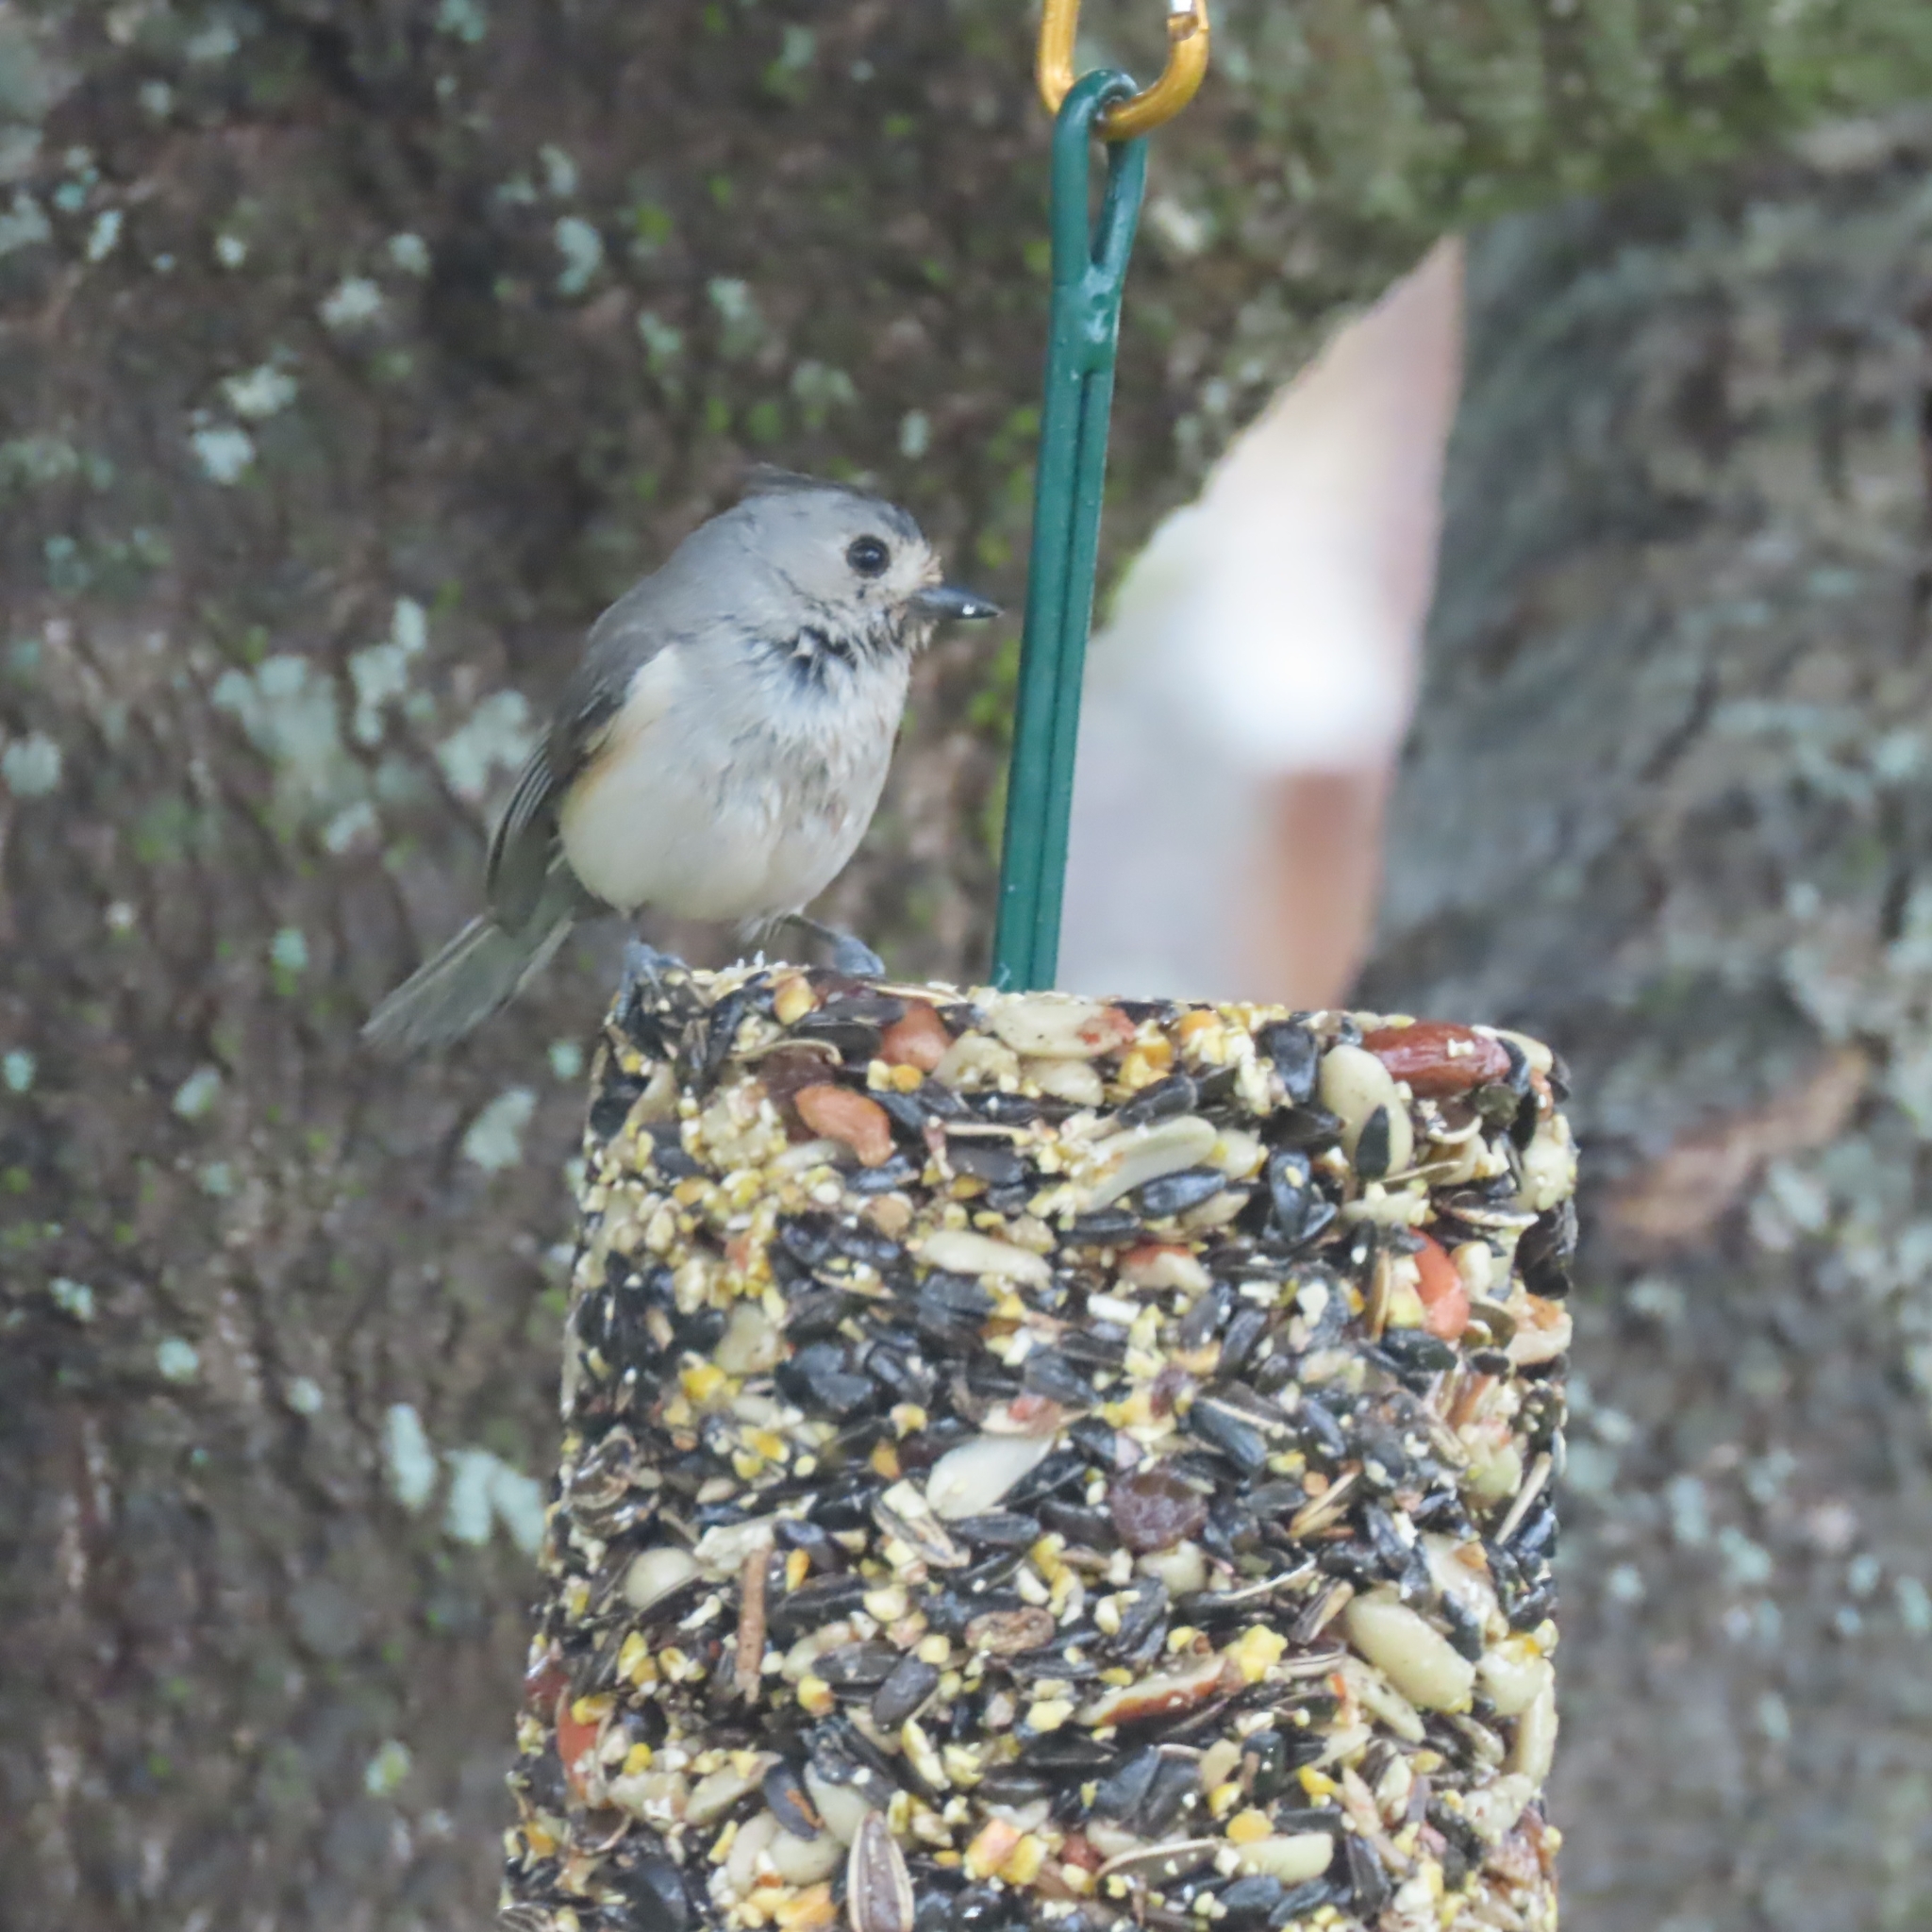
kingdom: Animalia
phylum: Chordata
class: Aves
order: Passeriformes
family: Paridae
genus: Baeolophus
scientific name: Baeolophus atricristatus
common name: Black-crested titmouse
